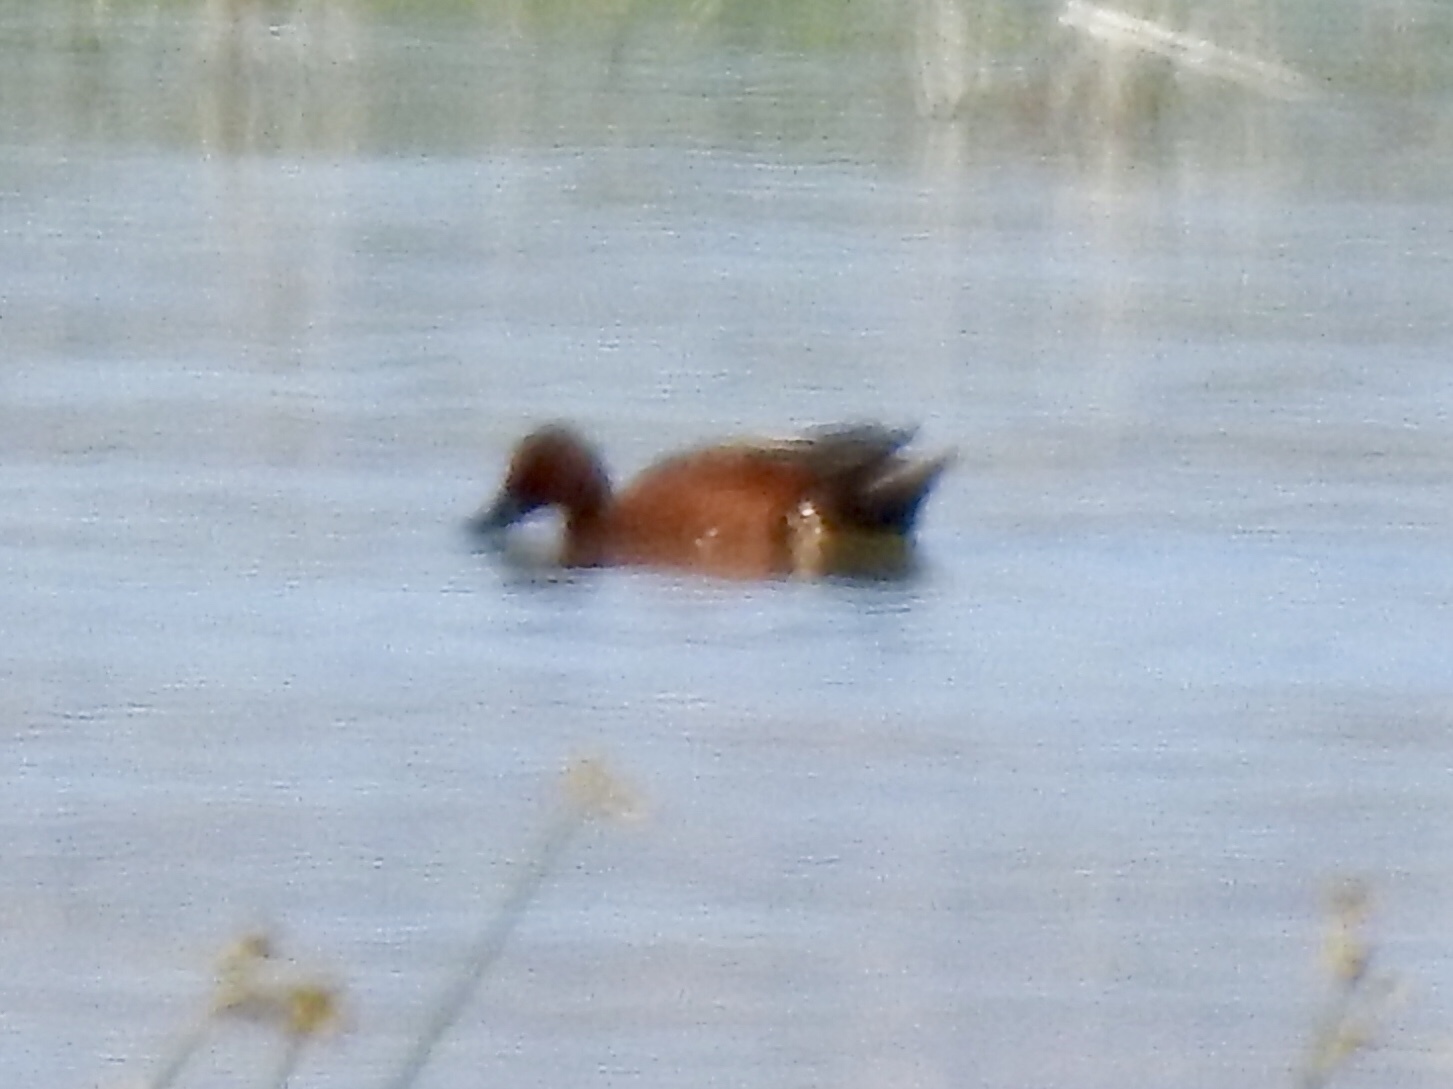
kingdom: Animalia
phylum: Chordata
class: Aves
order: Anseriformes
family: Anatidae
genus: Spatula
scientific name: Spatula cyanoptera
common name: Cinnamon teal
